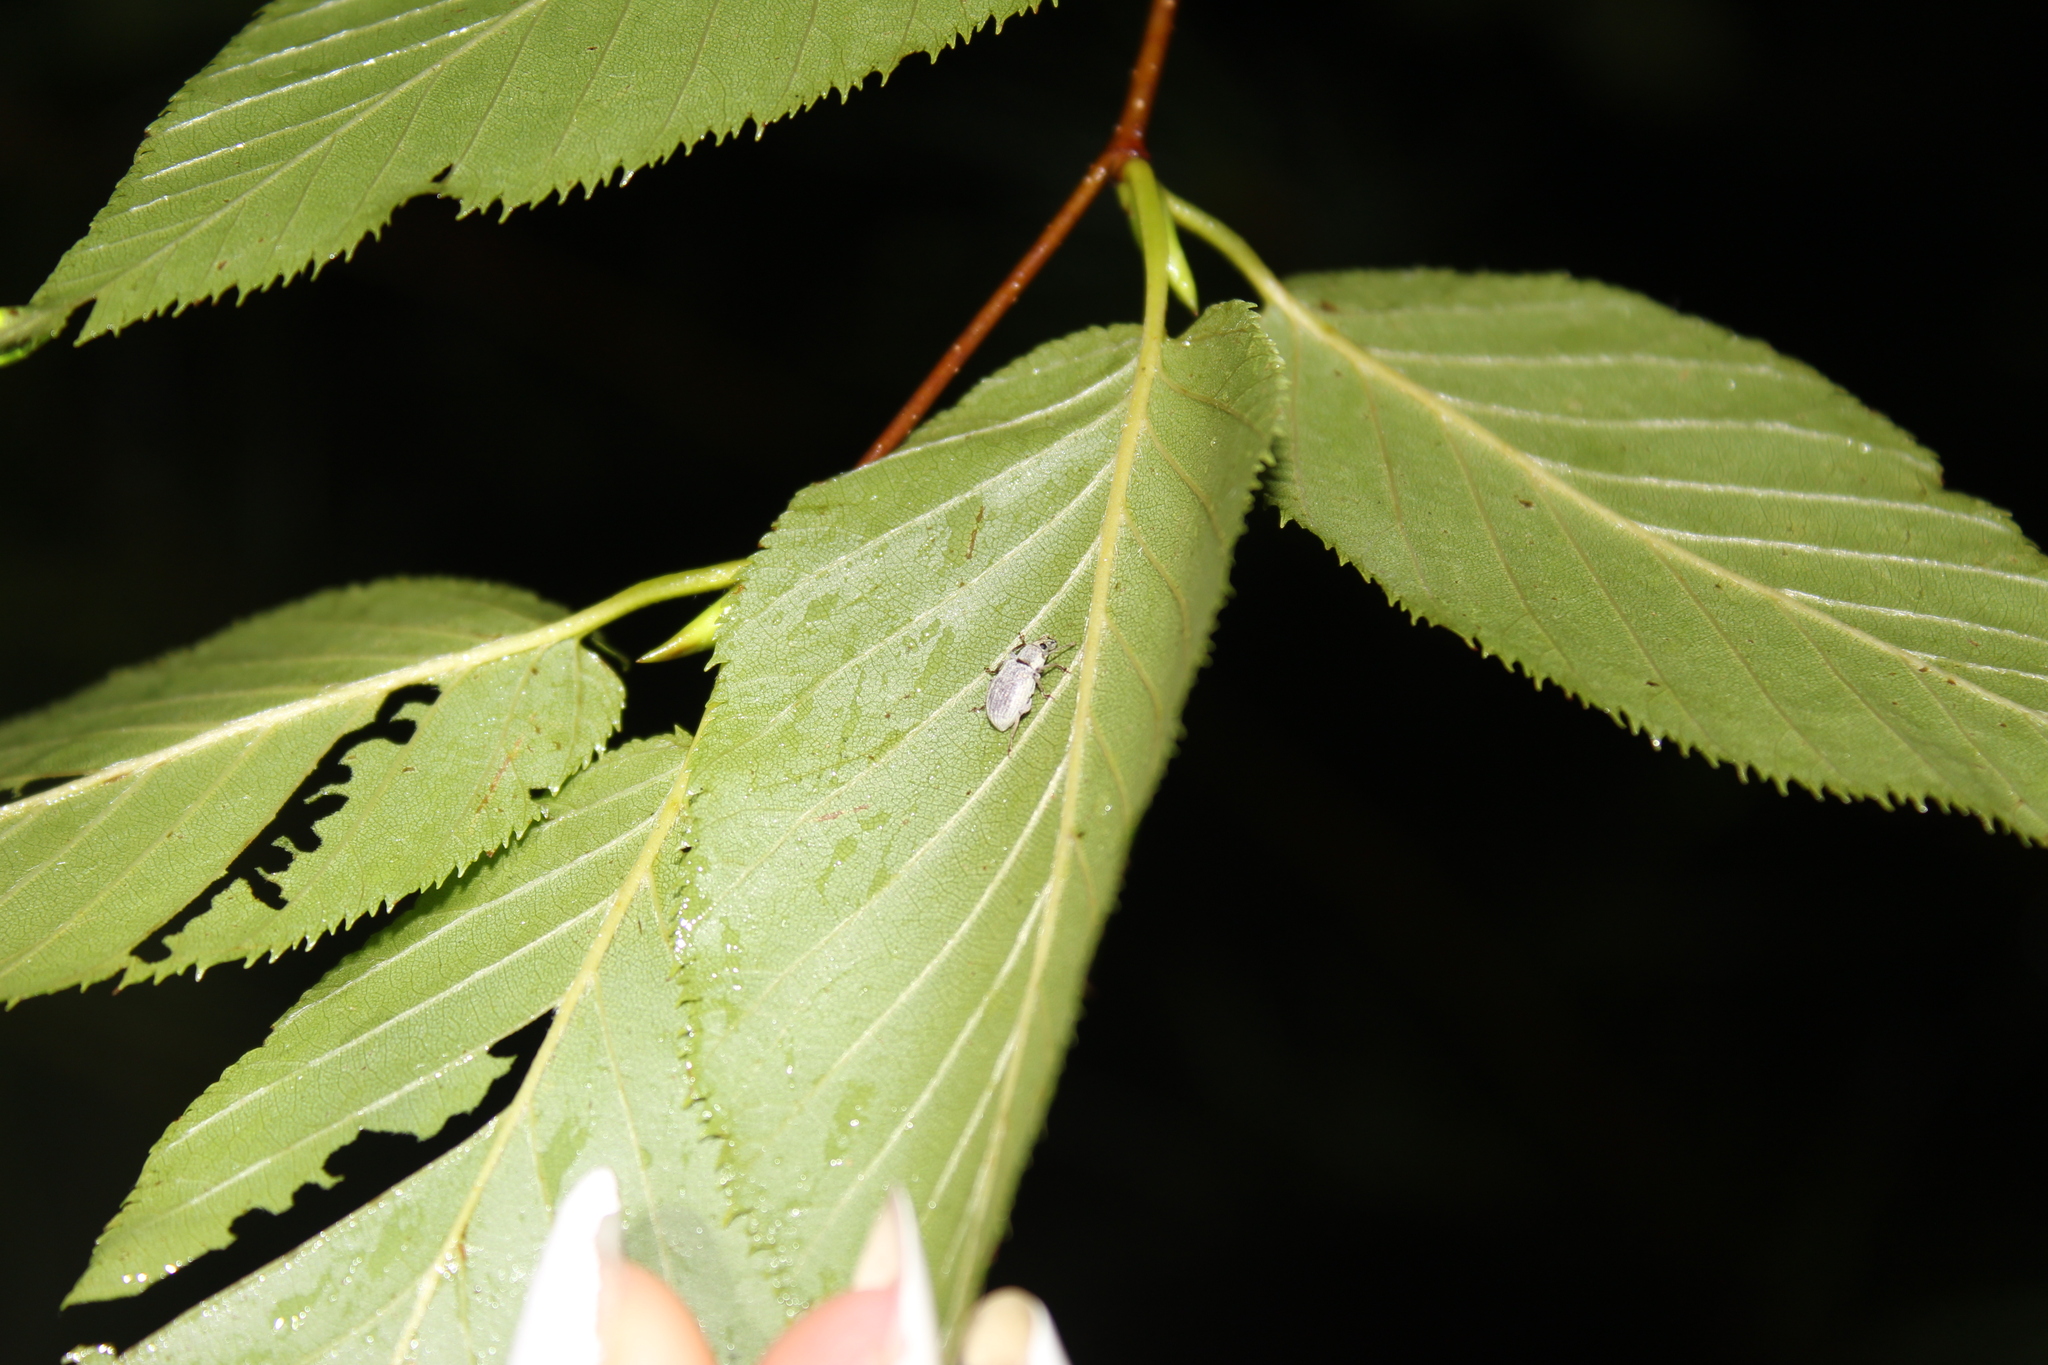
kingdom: Animalia
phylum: Arthropoda
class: Insecta
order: Coleoptera
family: Curculionidae
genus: Cyrtepistomus
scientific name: Cyrtepistomus castaneus
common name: Weevil
